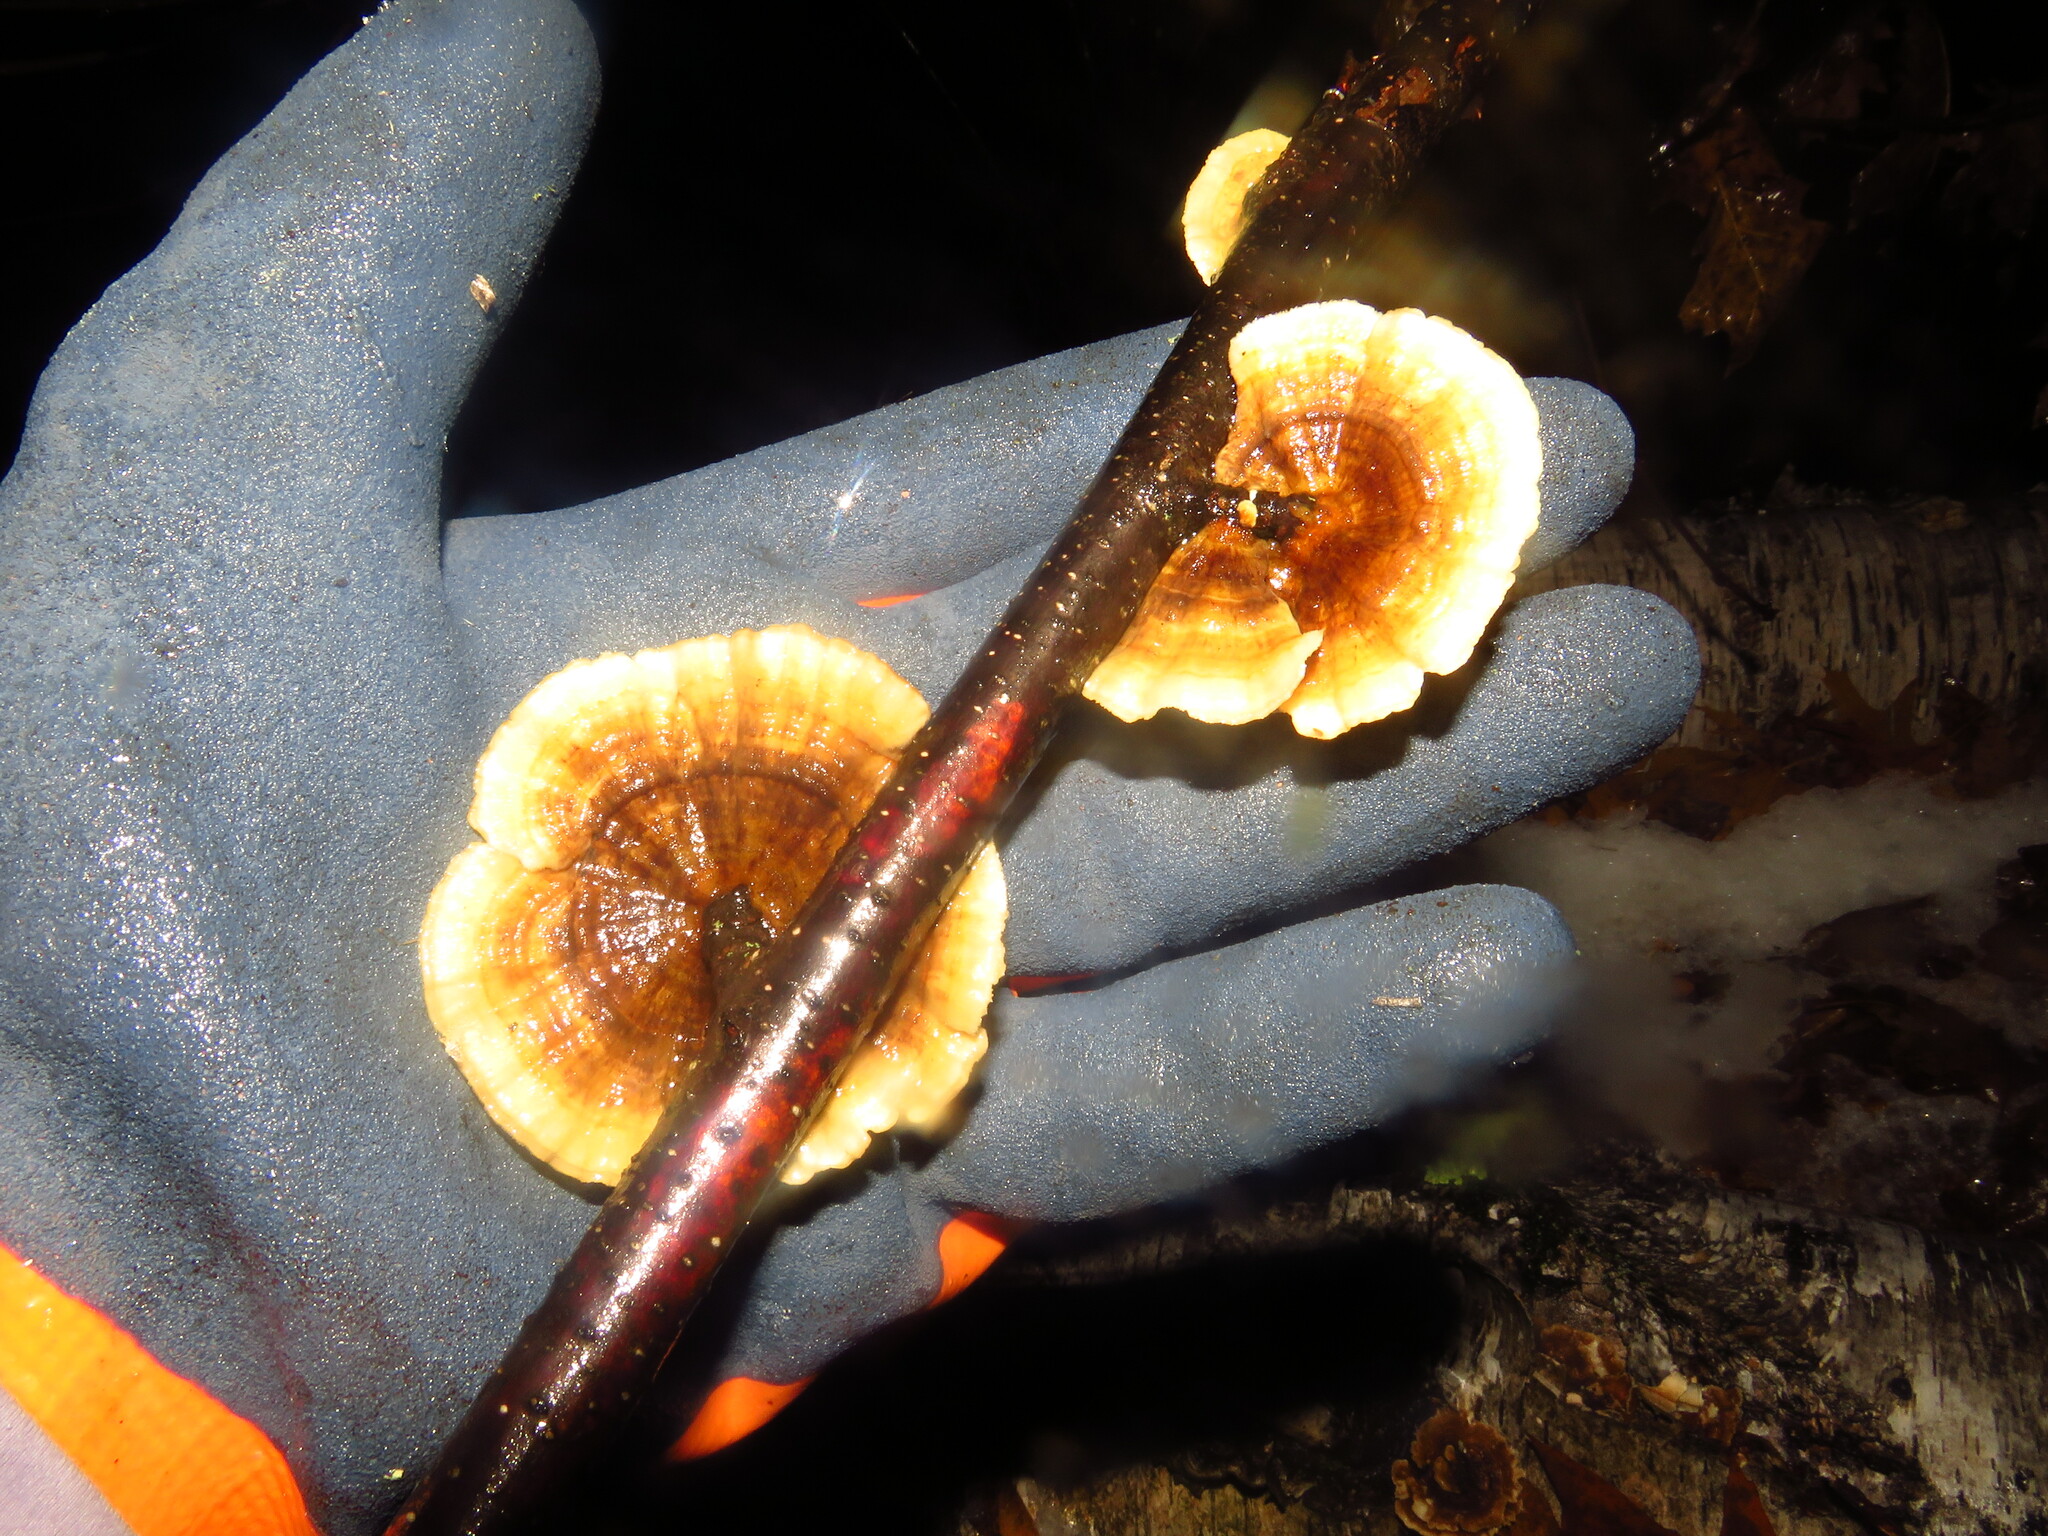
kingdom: Fungi
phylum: Basidiomycota
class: Agaricomycetes
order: Gloeophyllales
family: Gloeophyllaceae
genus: Gloeophyllum
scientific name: Gloeophyllum sepiarium
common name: Conifer mazegill
